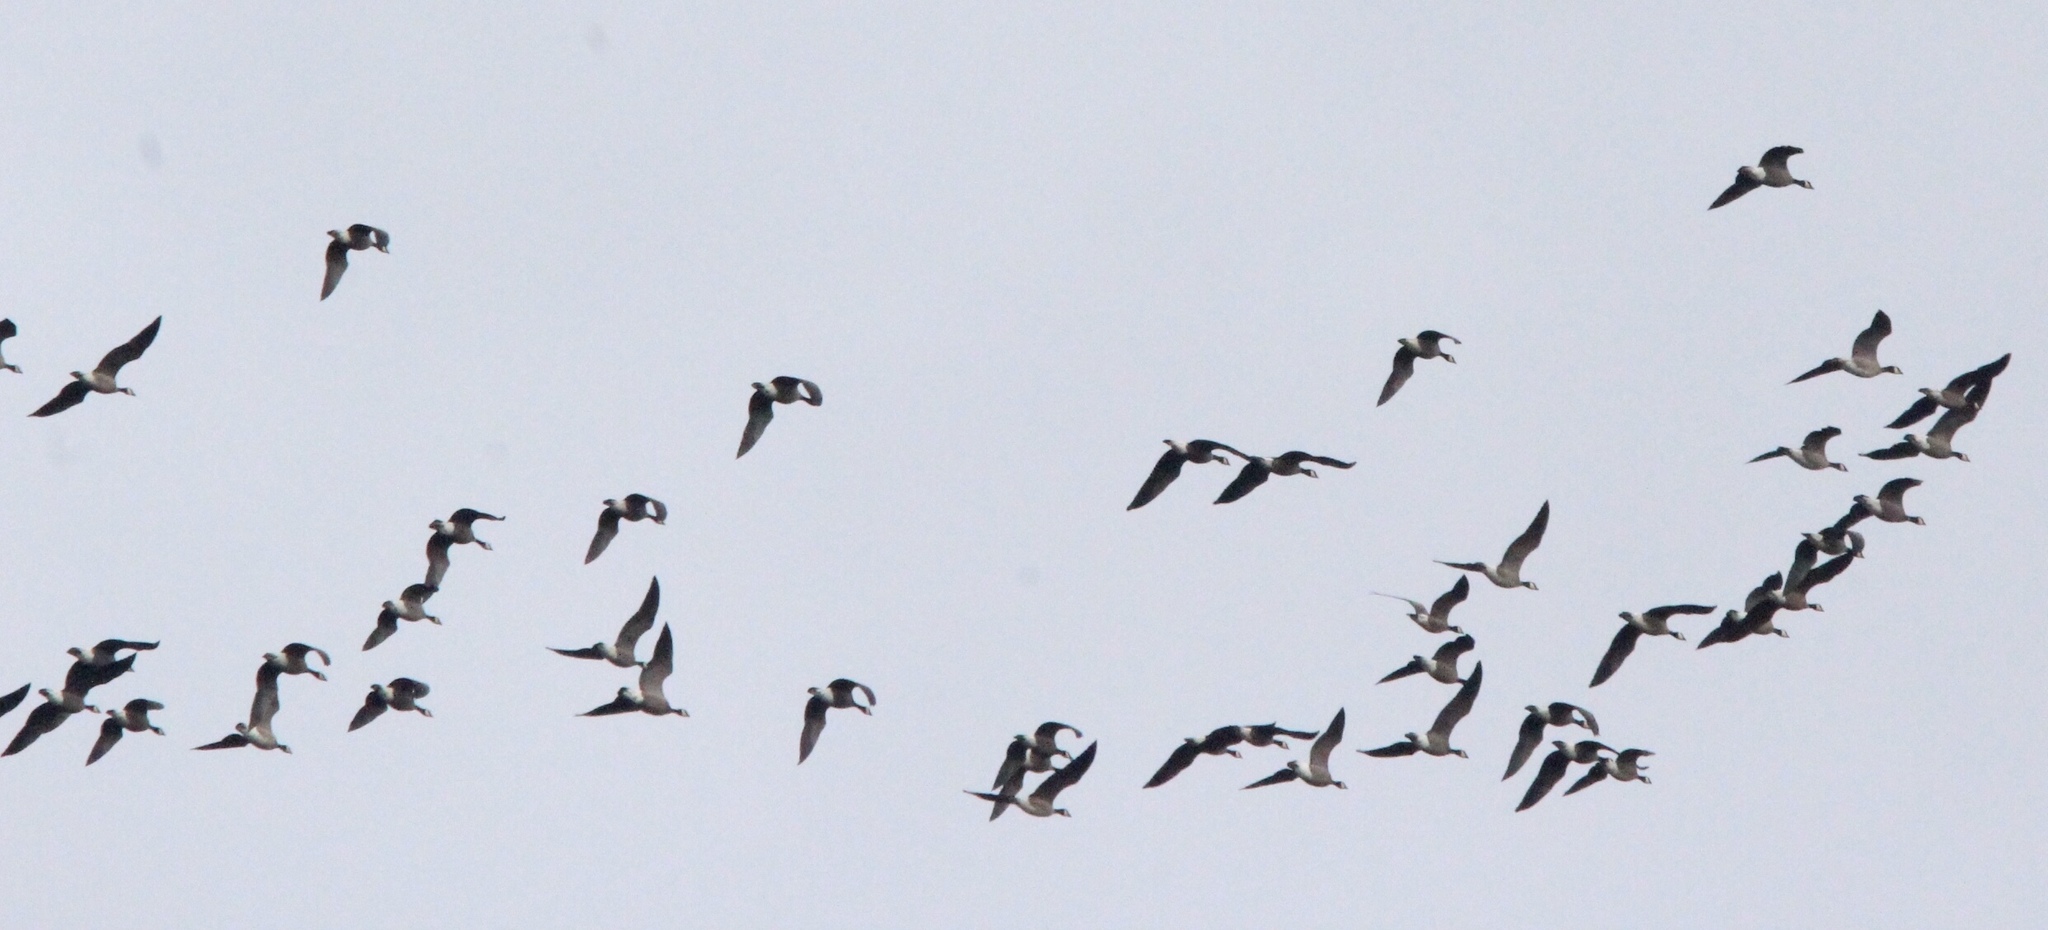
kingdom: Animalia
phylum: Chordata
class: Aves
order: Anseriformes
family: Anatidae
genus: Branta
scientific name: Branta canadensis
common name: Canada goose
